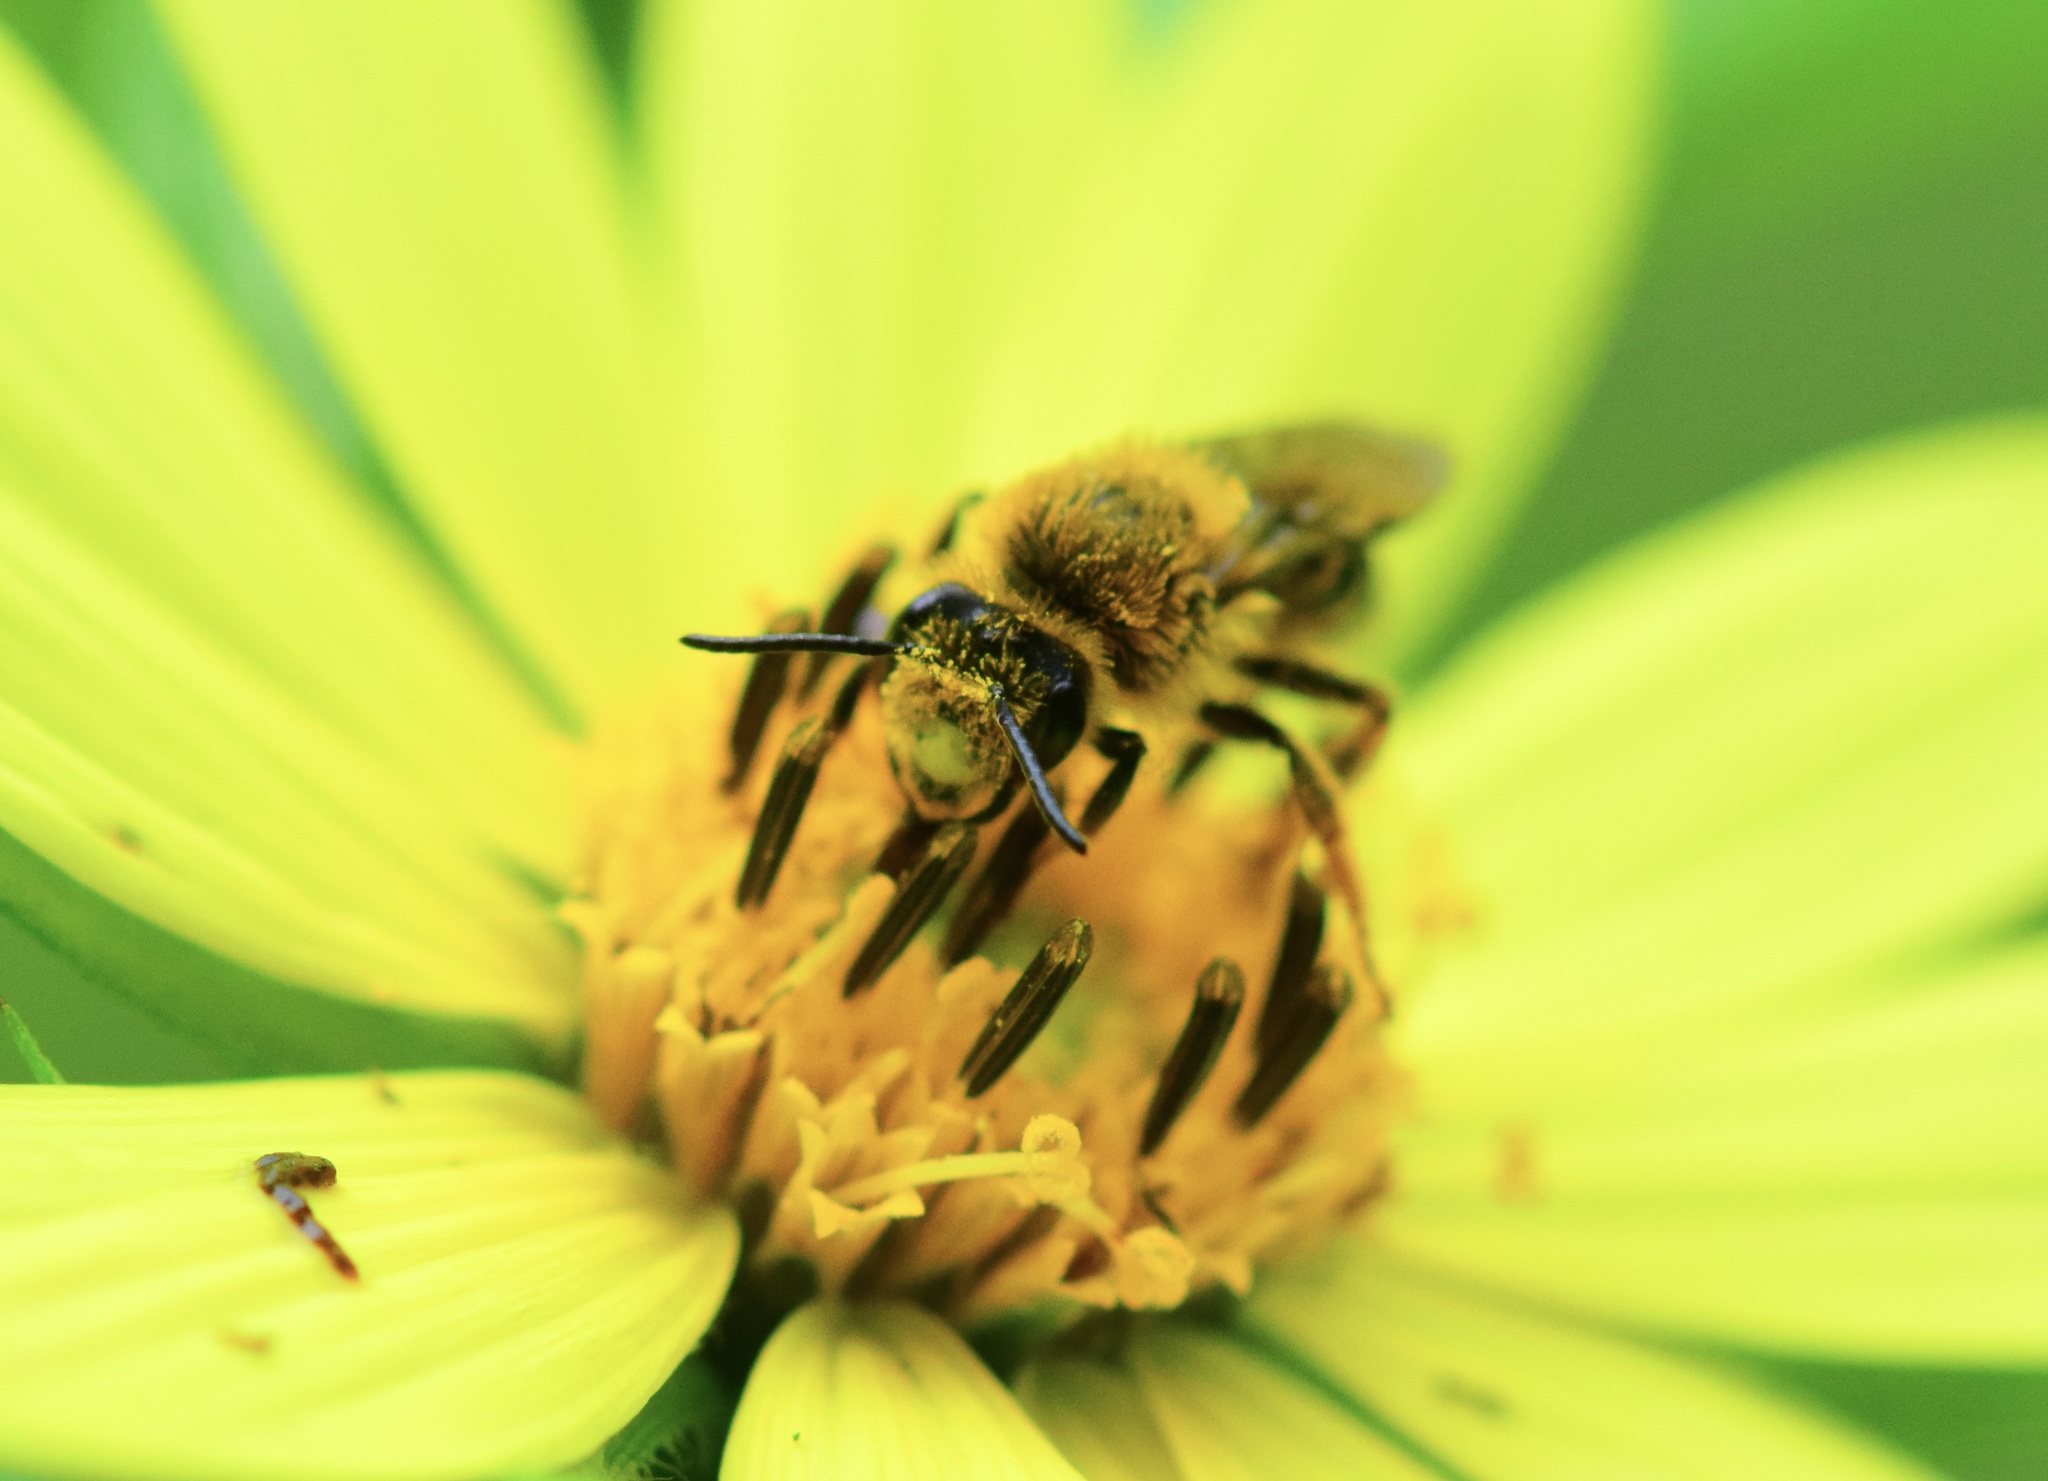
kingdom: Animalia
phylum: Arthropoda
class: Insecta
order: Hymenoptera
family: Andrenidae
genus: Andrena
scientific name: Andrena helianthi
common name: Sunflower mining bee
